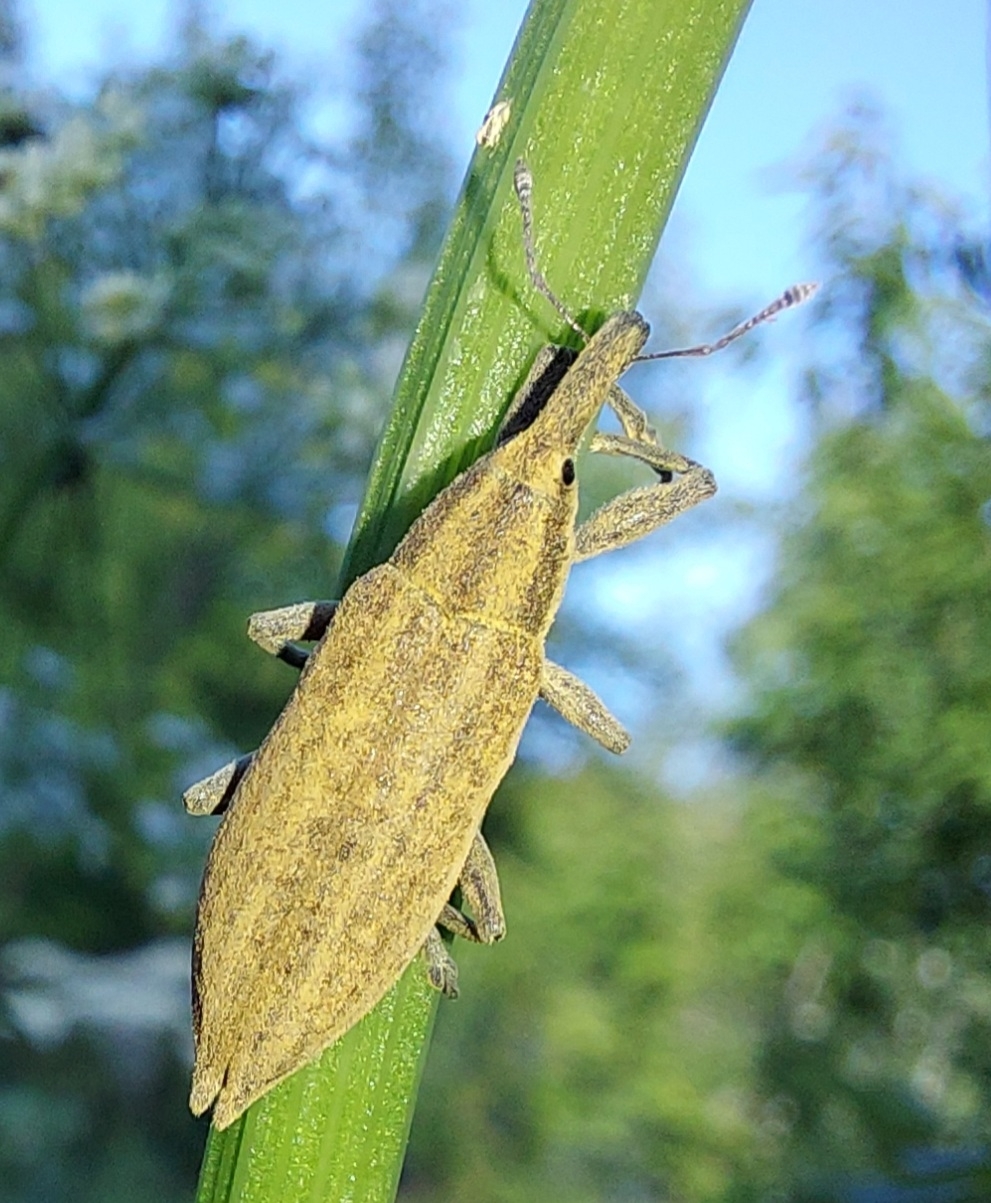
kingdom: Animalia
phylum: Arthropoda
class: Insecta
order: Coleoptera
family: Curculionidae
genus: Lixus
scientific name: Lixus iridis
